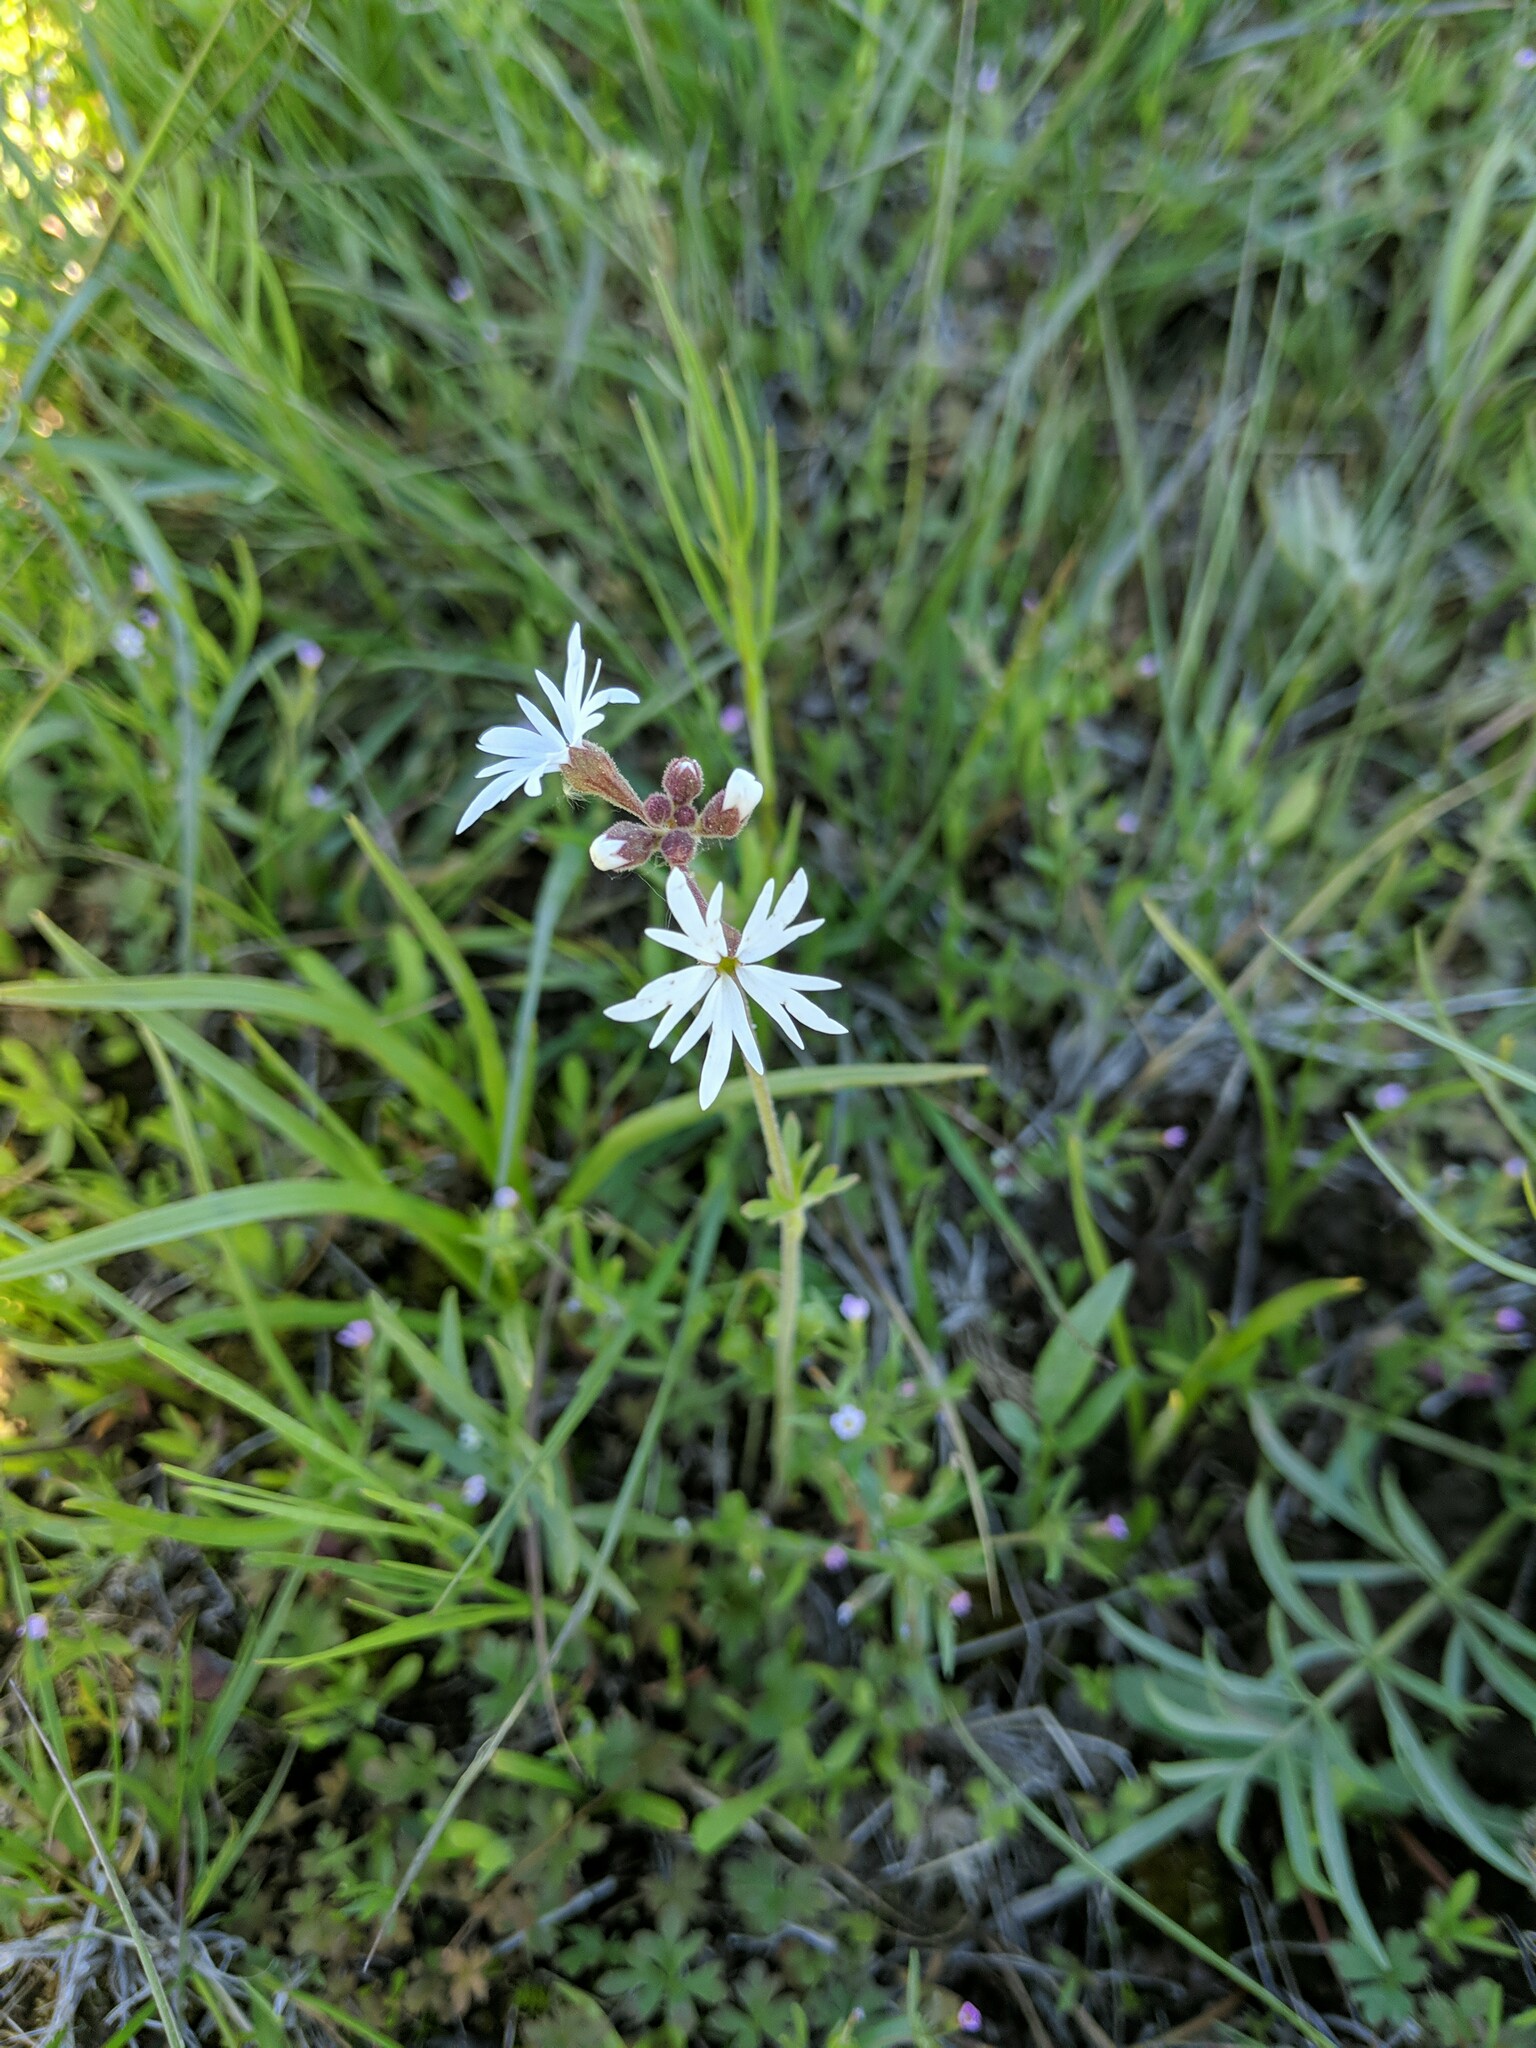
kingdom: Plantae
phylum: Tracheophyta
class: Magnoliopsida
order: Saxifragales
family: Saxifragaceae
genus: Lithophragma
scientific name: Lithophragma parviflorum
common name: Small-flowered fringe-cup
